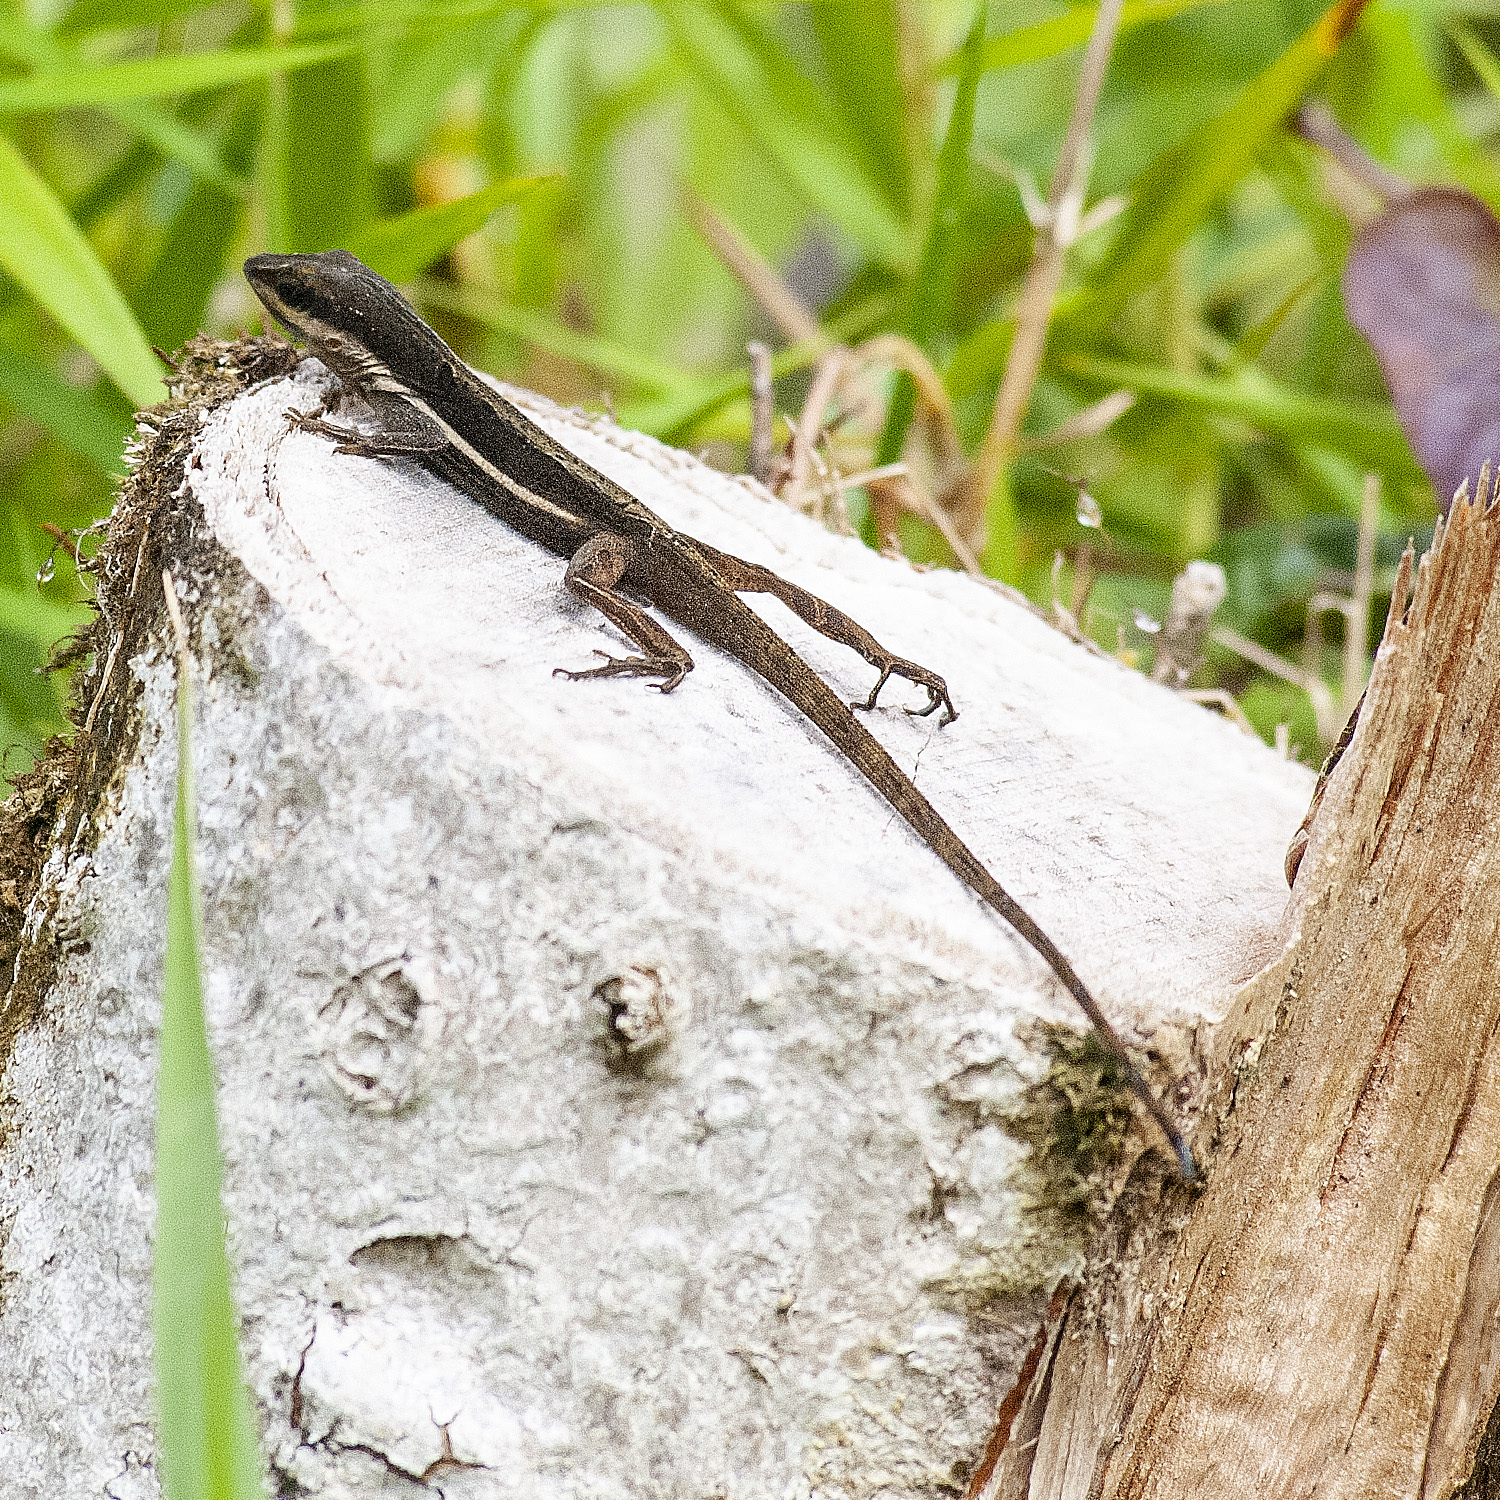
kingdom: Animalia
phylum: Chordata
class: Squamata
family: Dactyloidae
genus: Anolis
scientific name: Anolis krugi
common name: Krug's anole
